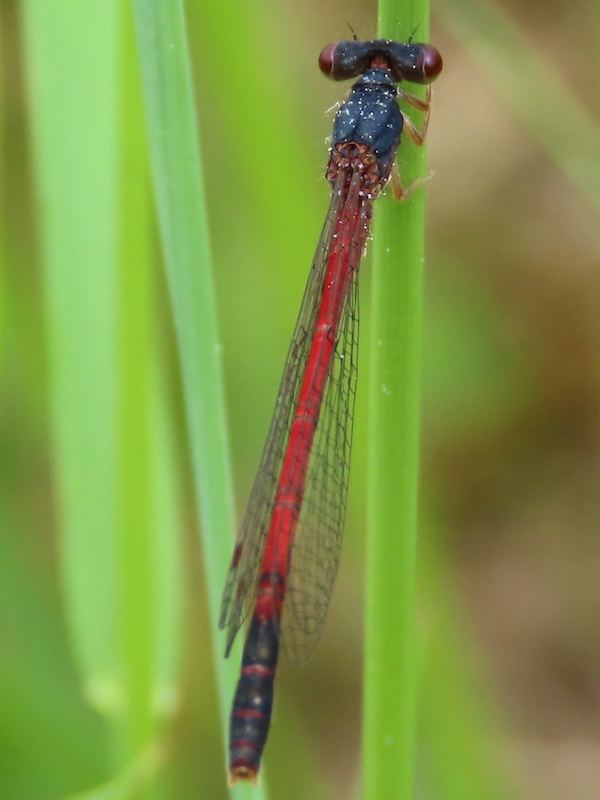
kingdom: Animalia
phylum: Arthropoda
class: Insecta
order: Odonata
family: Coenagrionidae
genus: Amphiagrion
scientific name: Amphiagrion saucium
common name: Eastern red damsel
